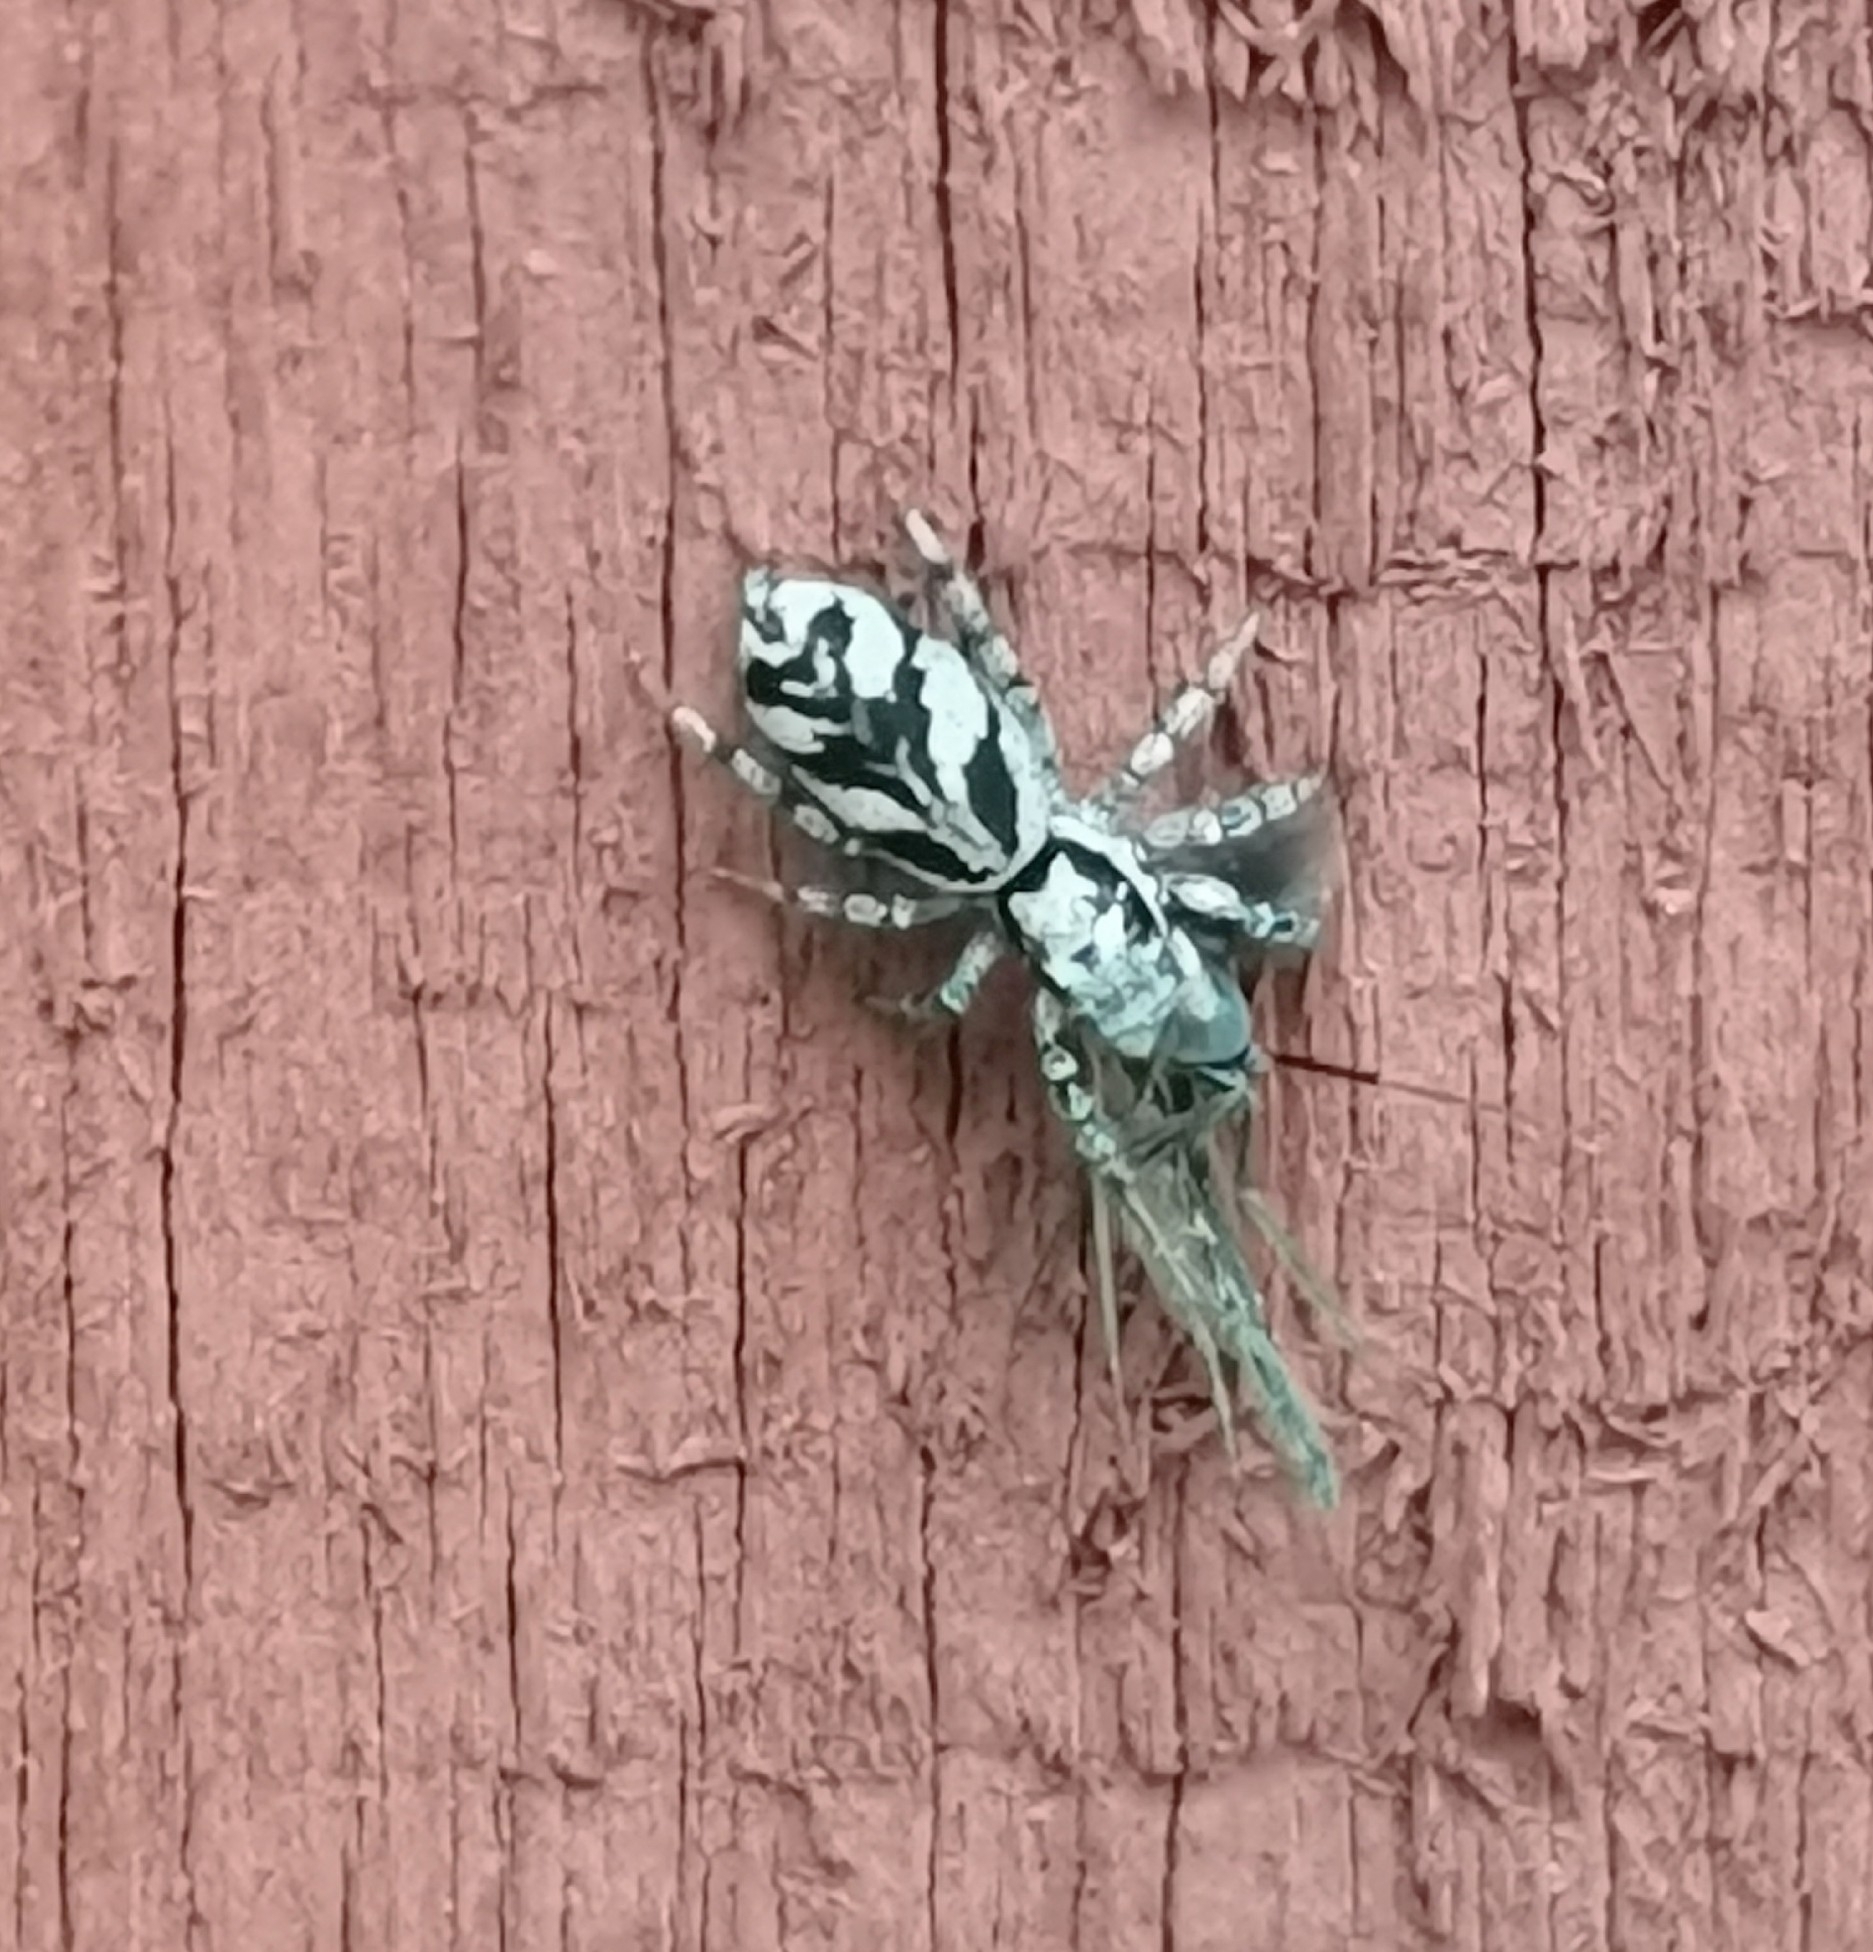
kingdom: Animalia
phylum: Arthropoda
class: Arachnida
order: Araneae
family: Salticidae
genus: Salticus
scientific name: Salticus cingulatus
